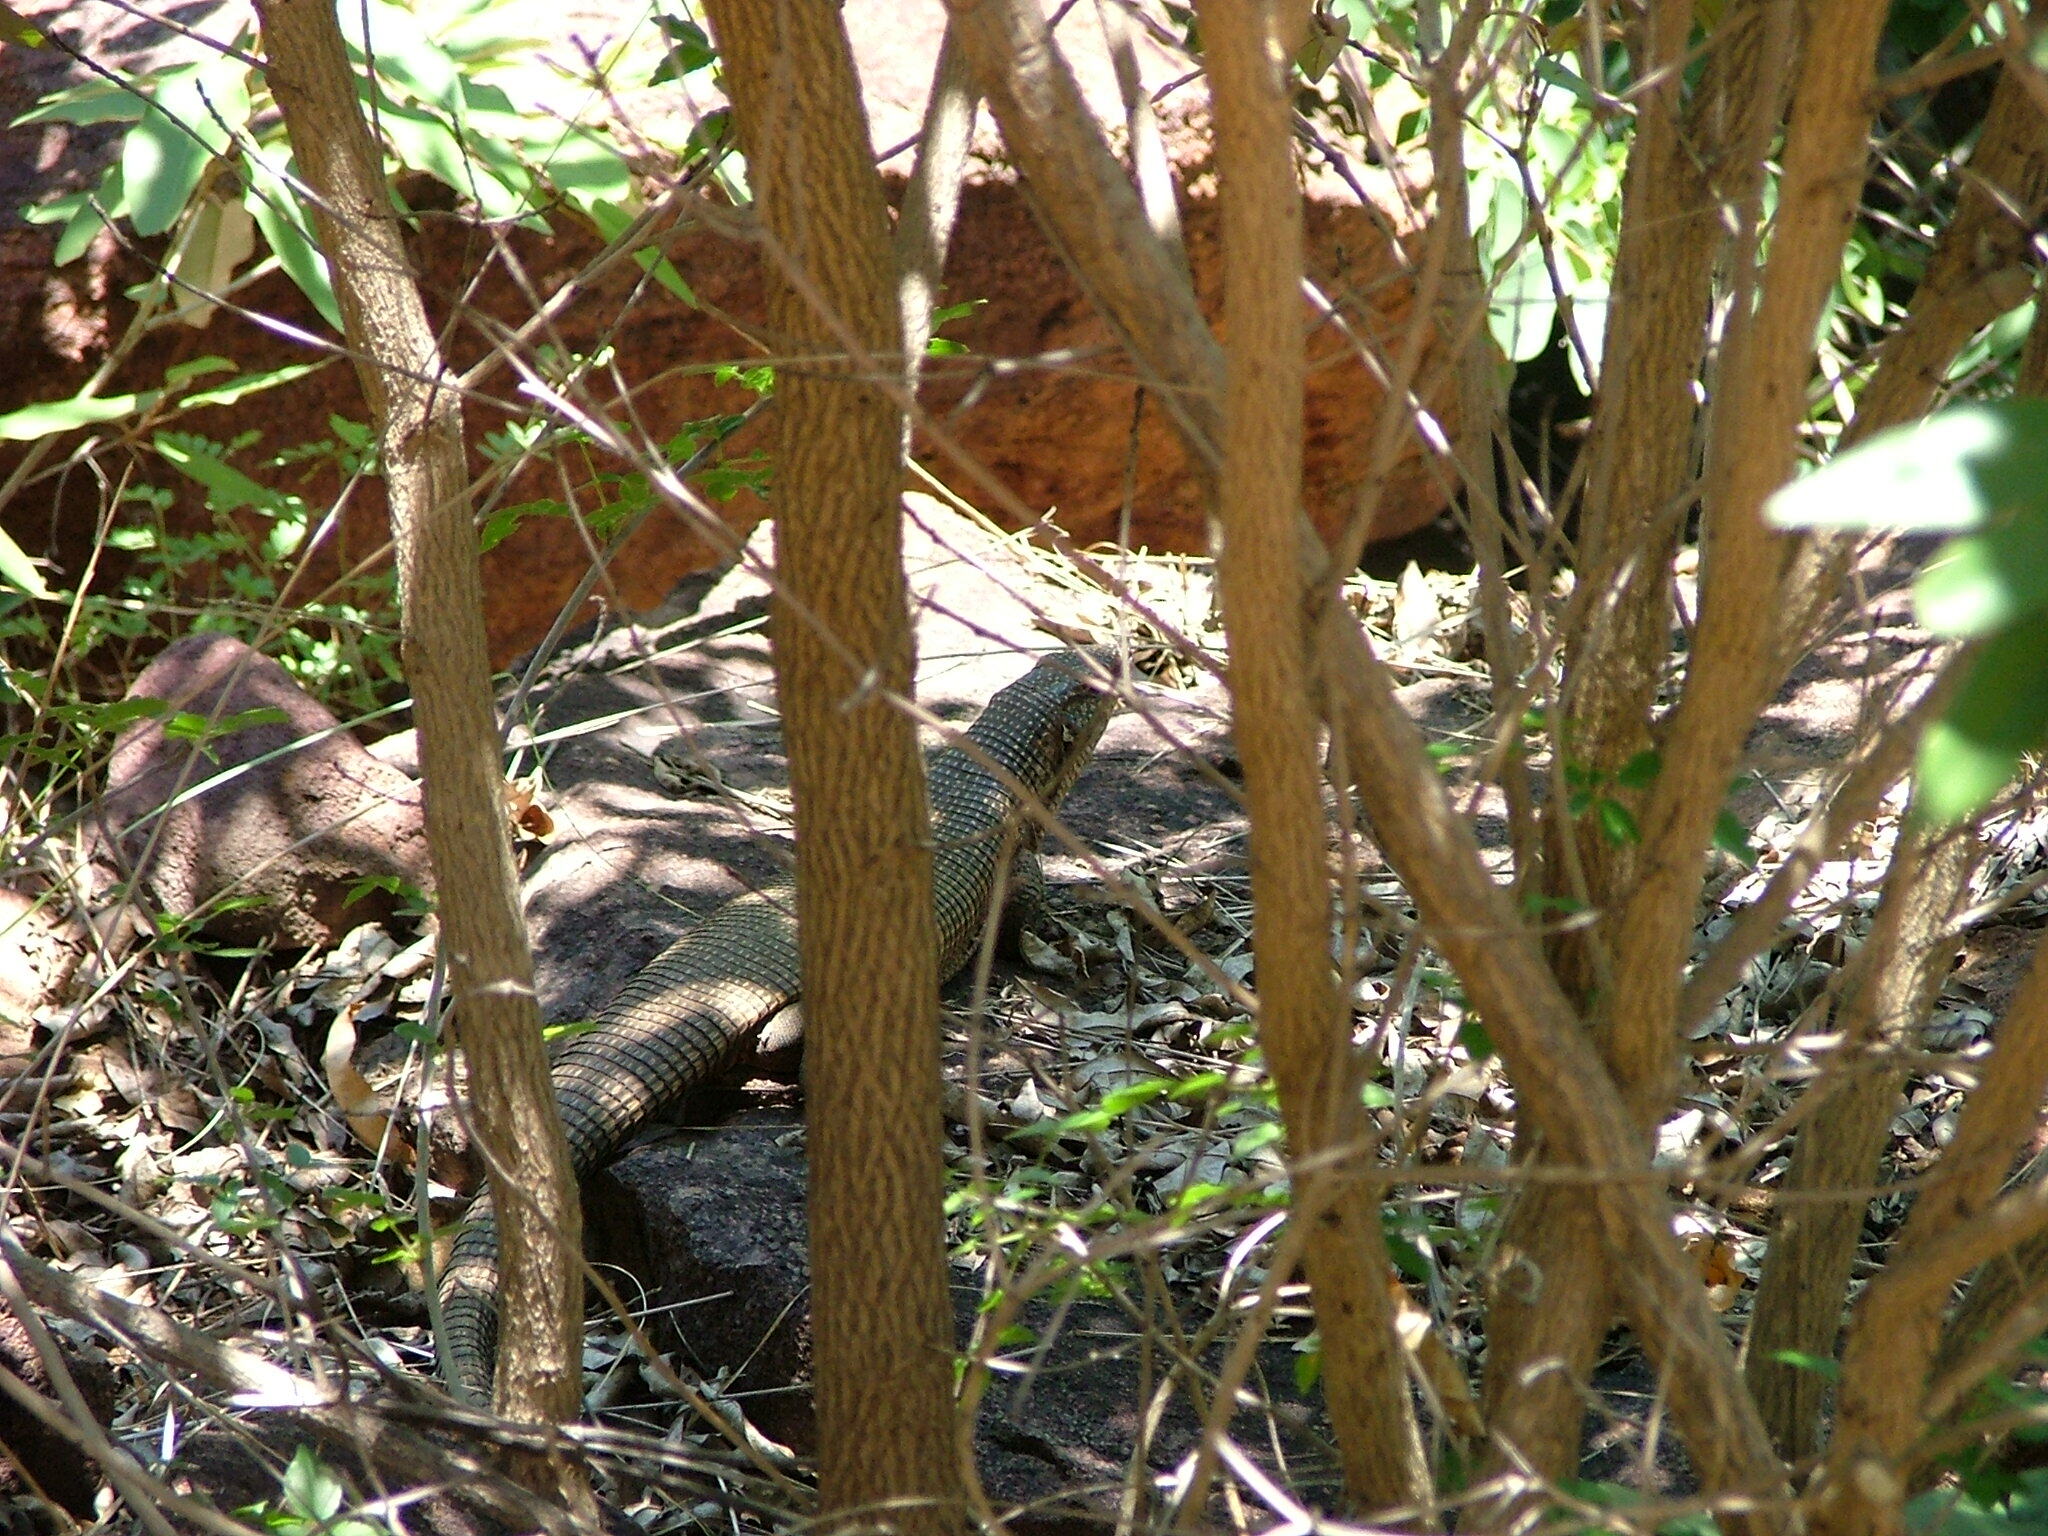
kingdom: Animalia
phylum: Chordata
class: Squamata
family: Gerrhosauridae
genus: Matobosaurus
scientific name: Matobosaurus validus
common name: Common giant plated lizard
